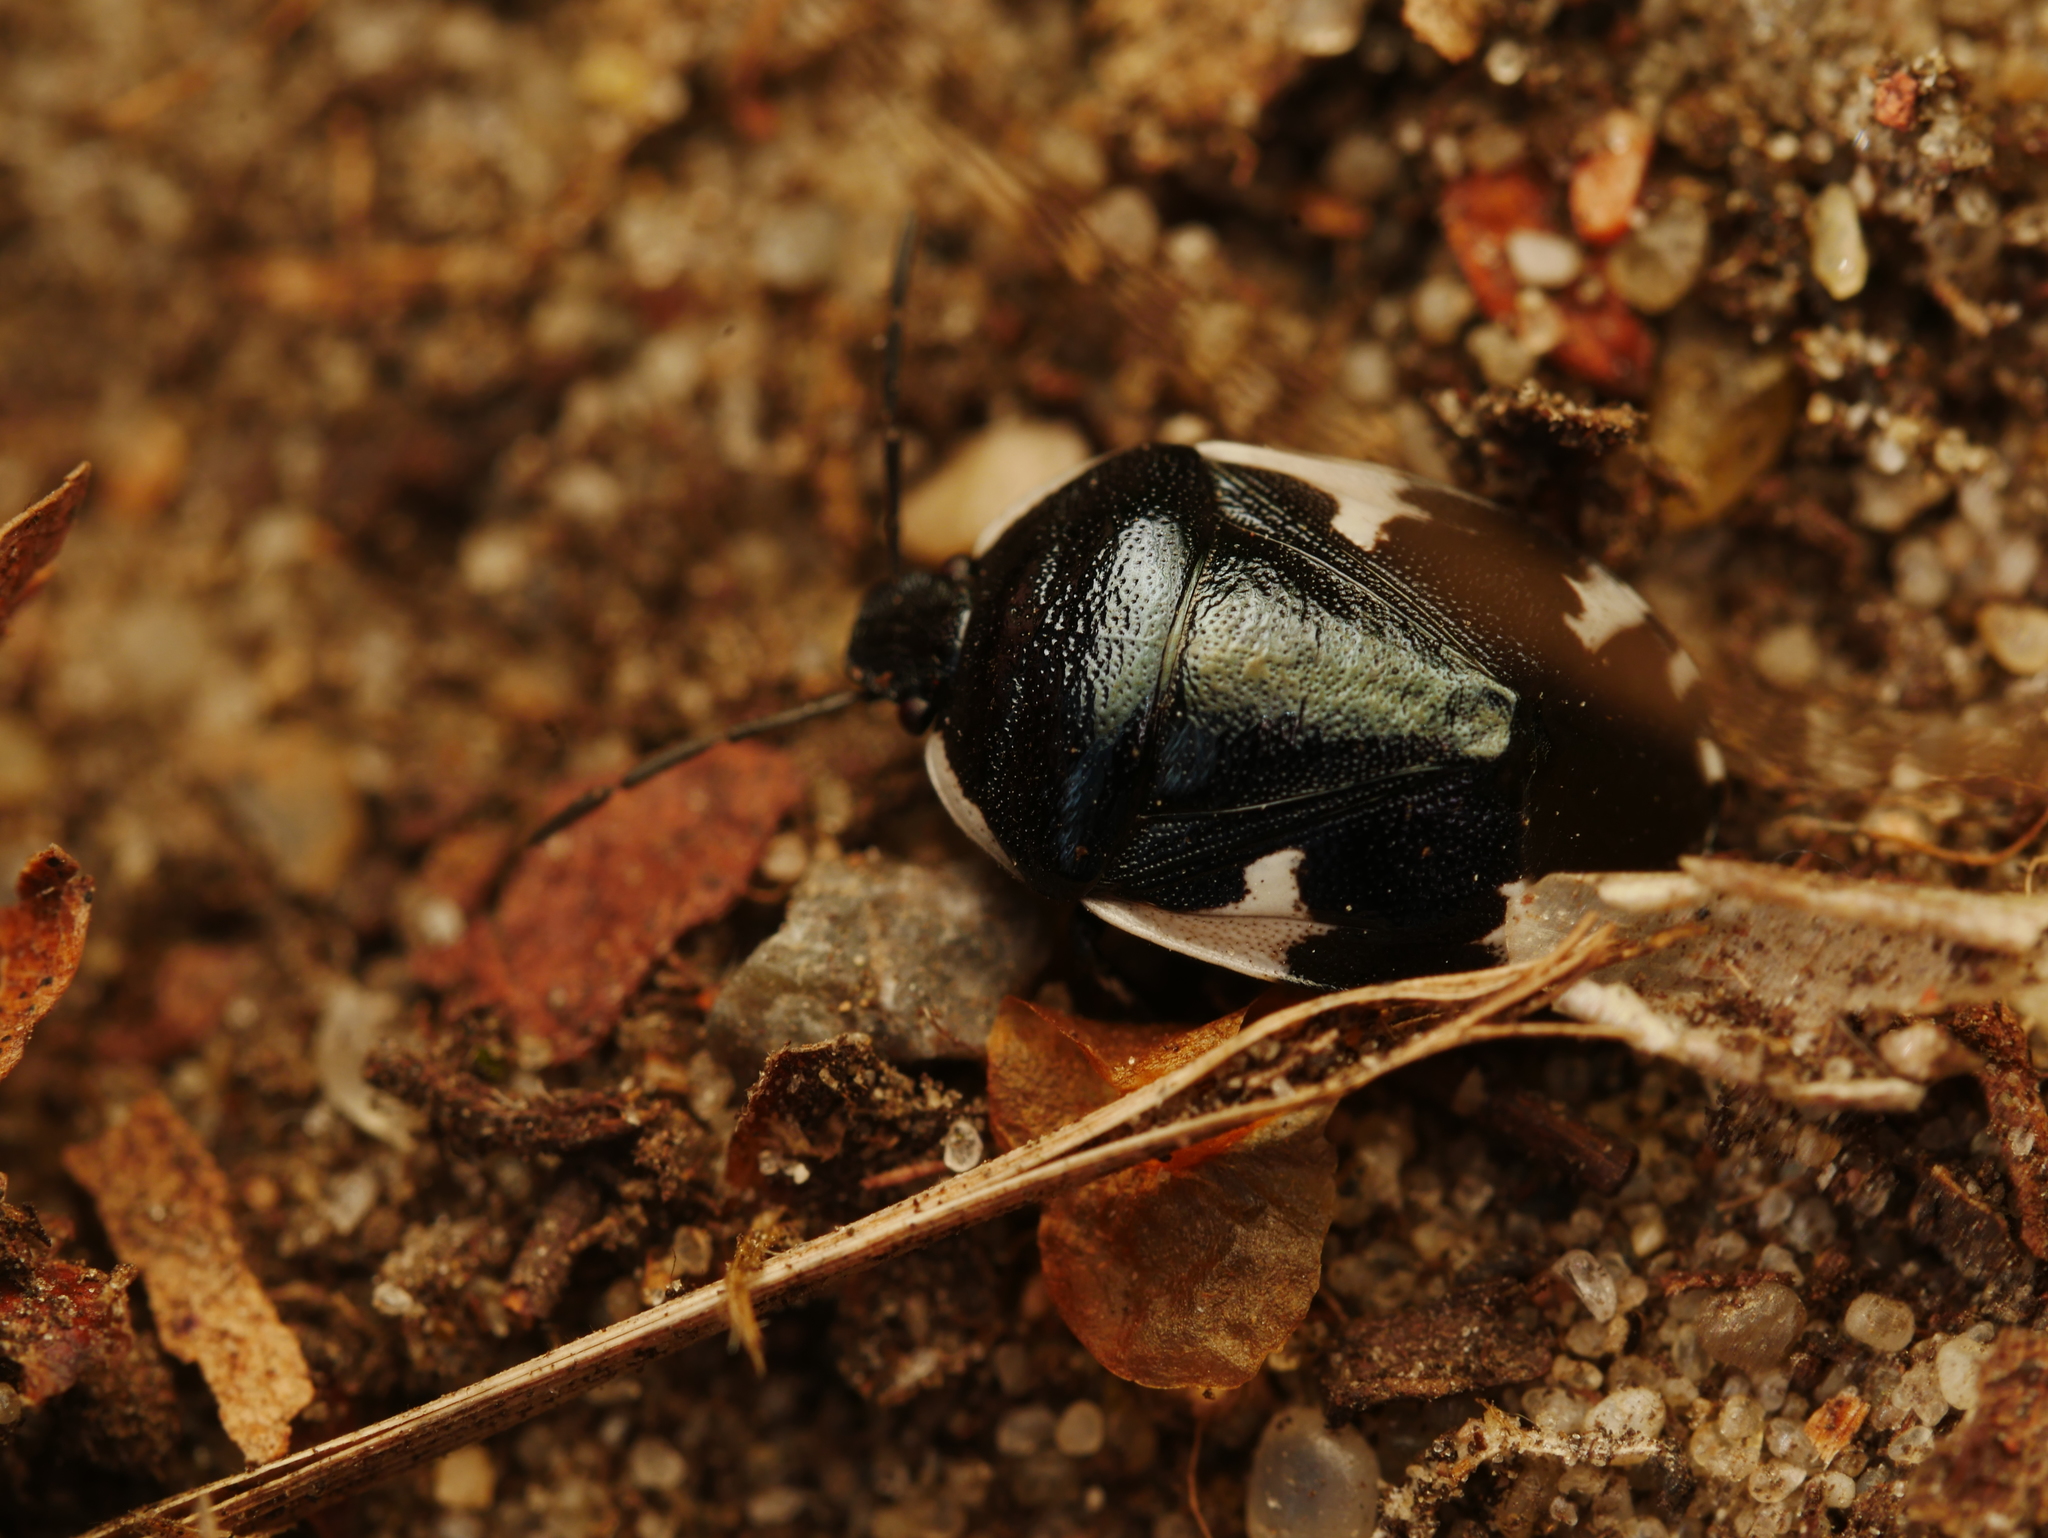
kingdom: Animalia
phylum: Arthropoda
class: Insecta
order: Hemiptera
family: Cydnidae
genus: Tritomegas
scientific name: Tritomegas sexmaculatus
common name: Rambur's pied shieldbug
